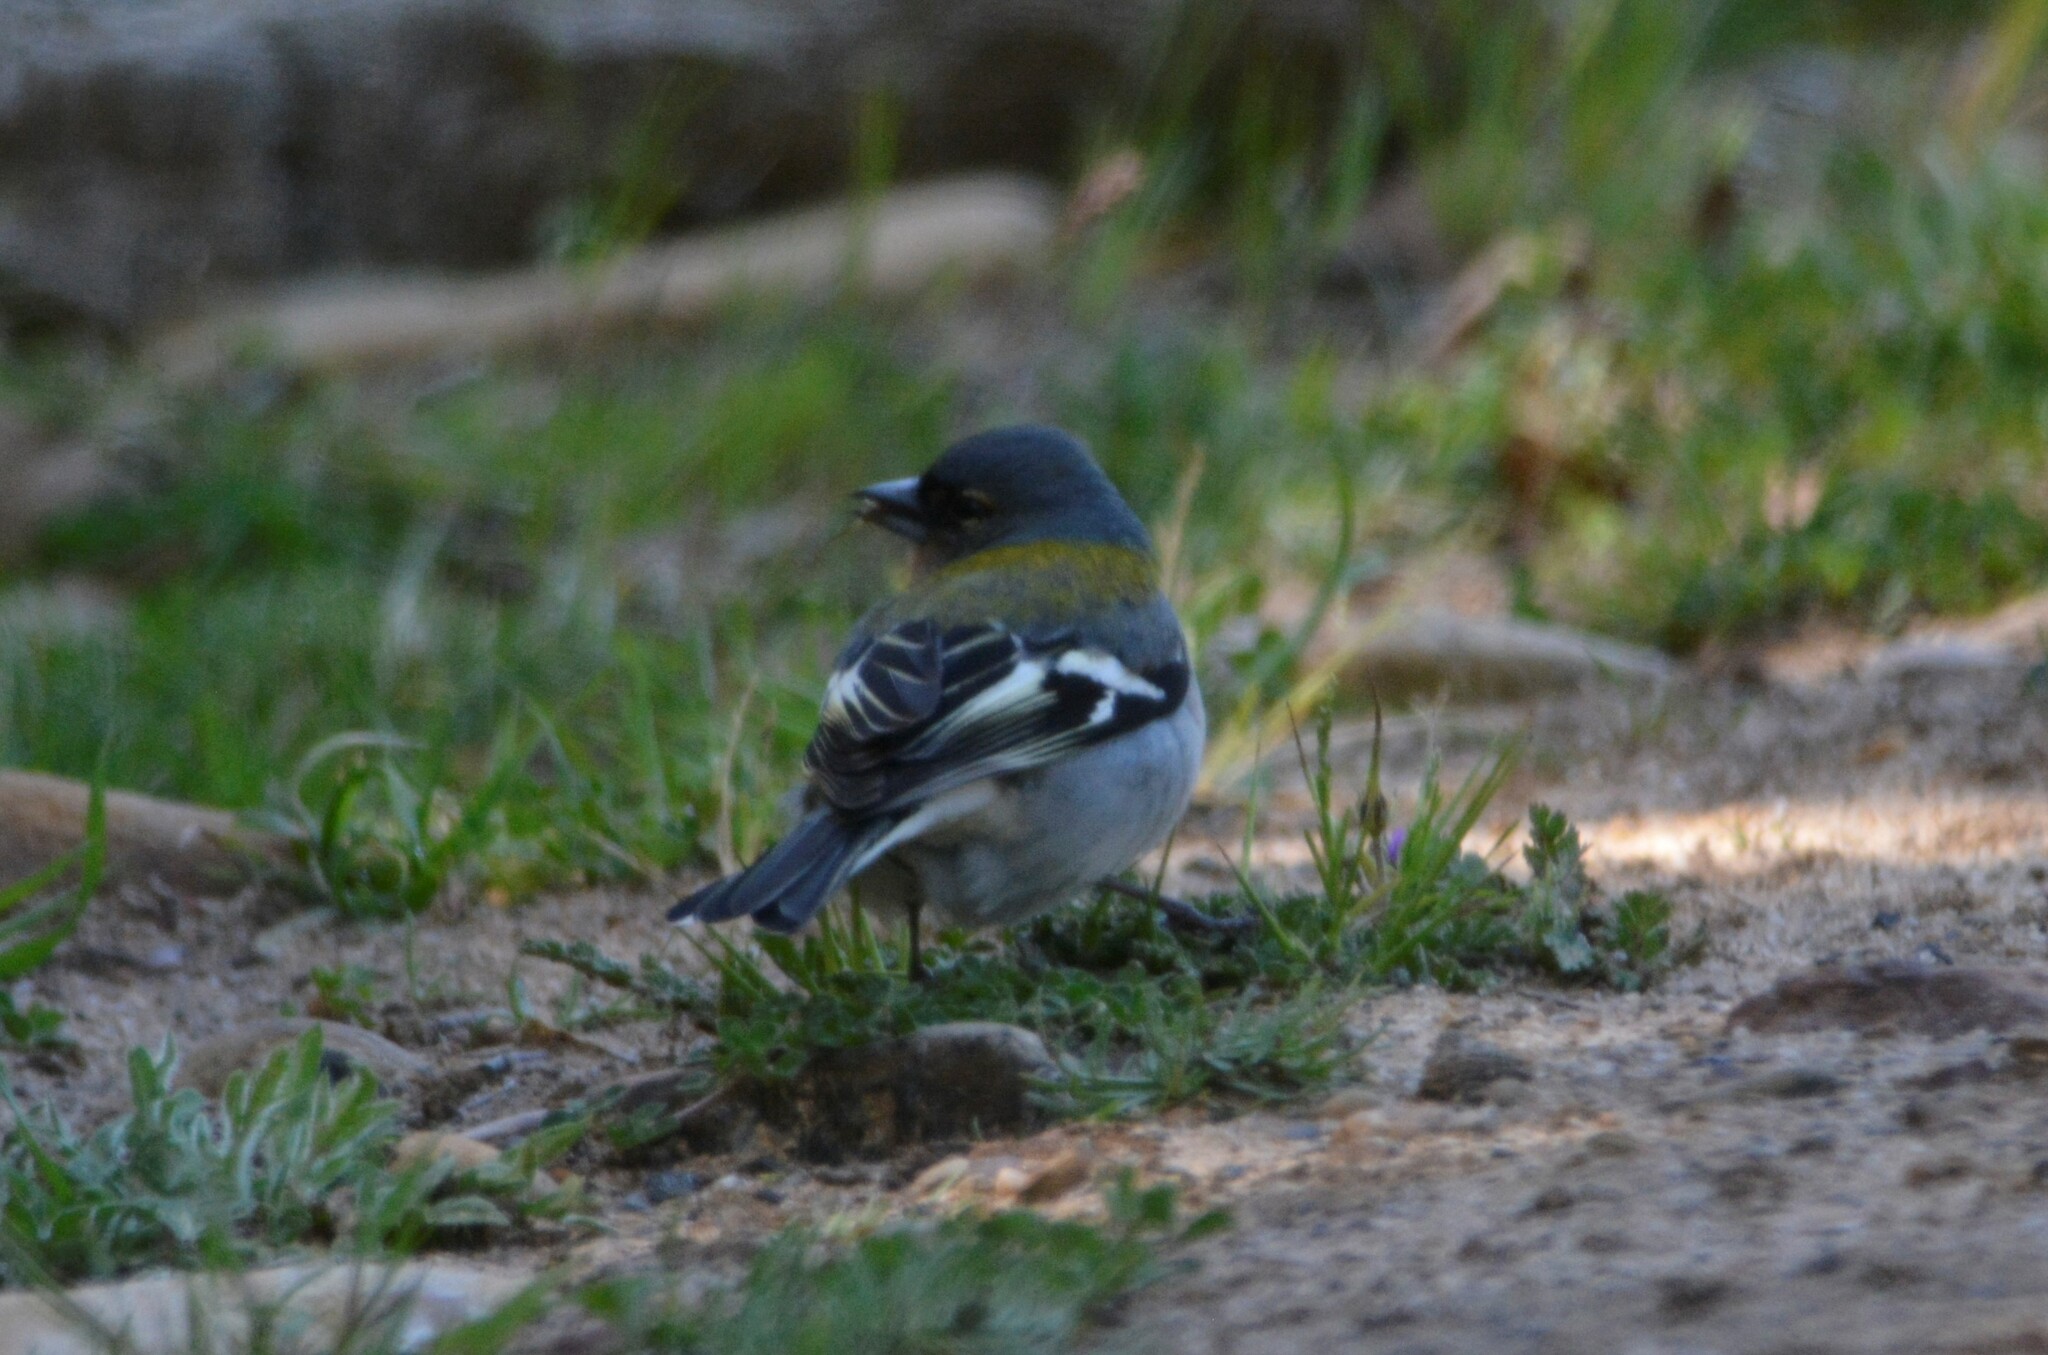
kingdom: Animalia
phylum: Chordata
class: Aves
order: Passeriformes
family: Fringillidae
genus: Fringilla
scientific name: Fringilla spodiogenys
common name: African chaffinch
